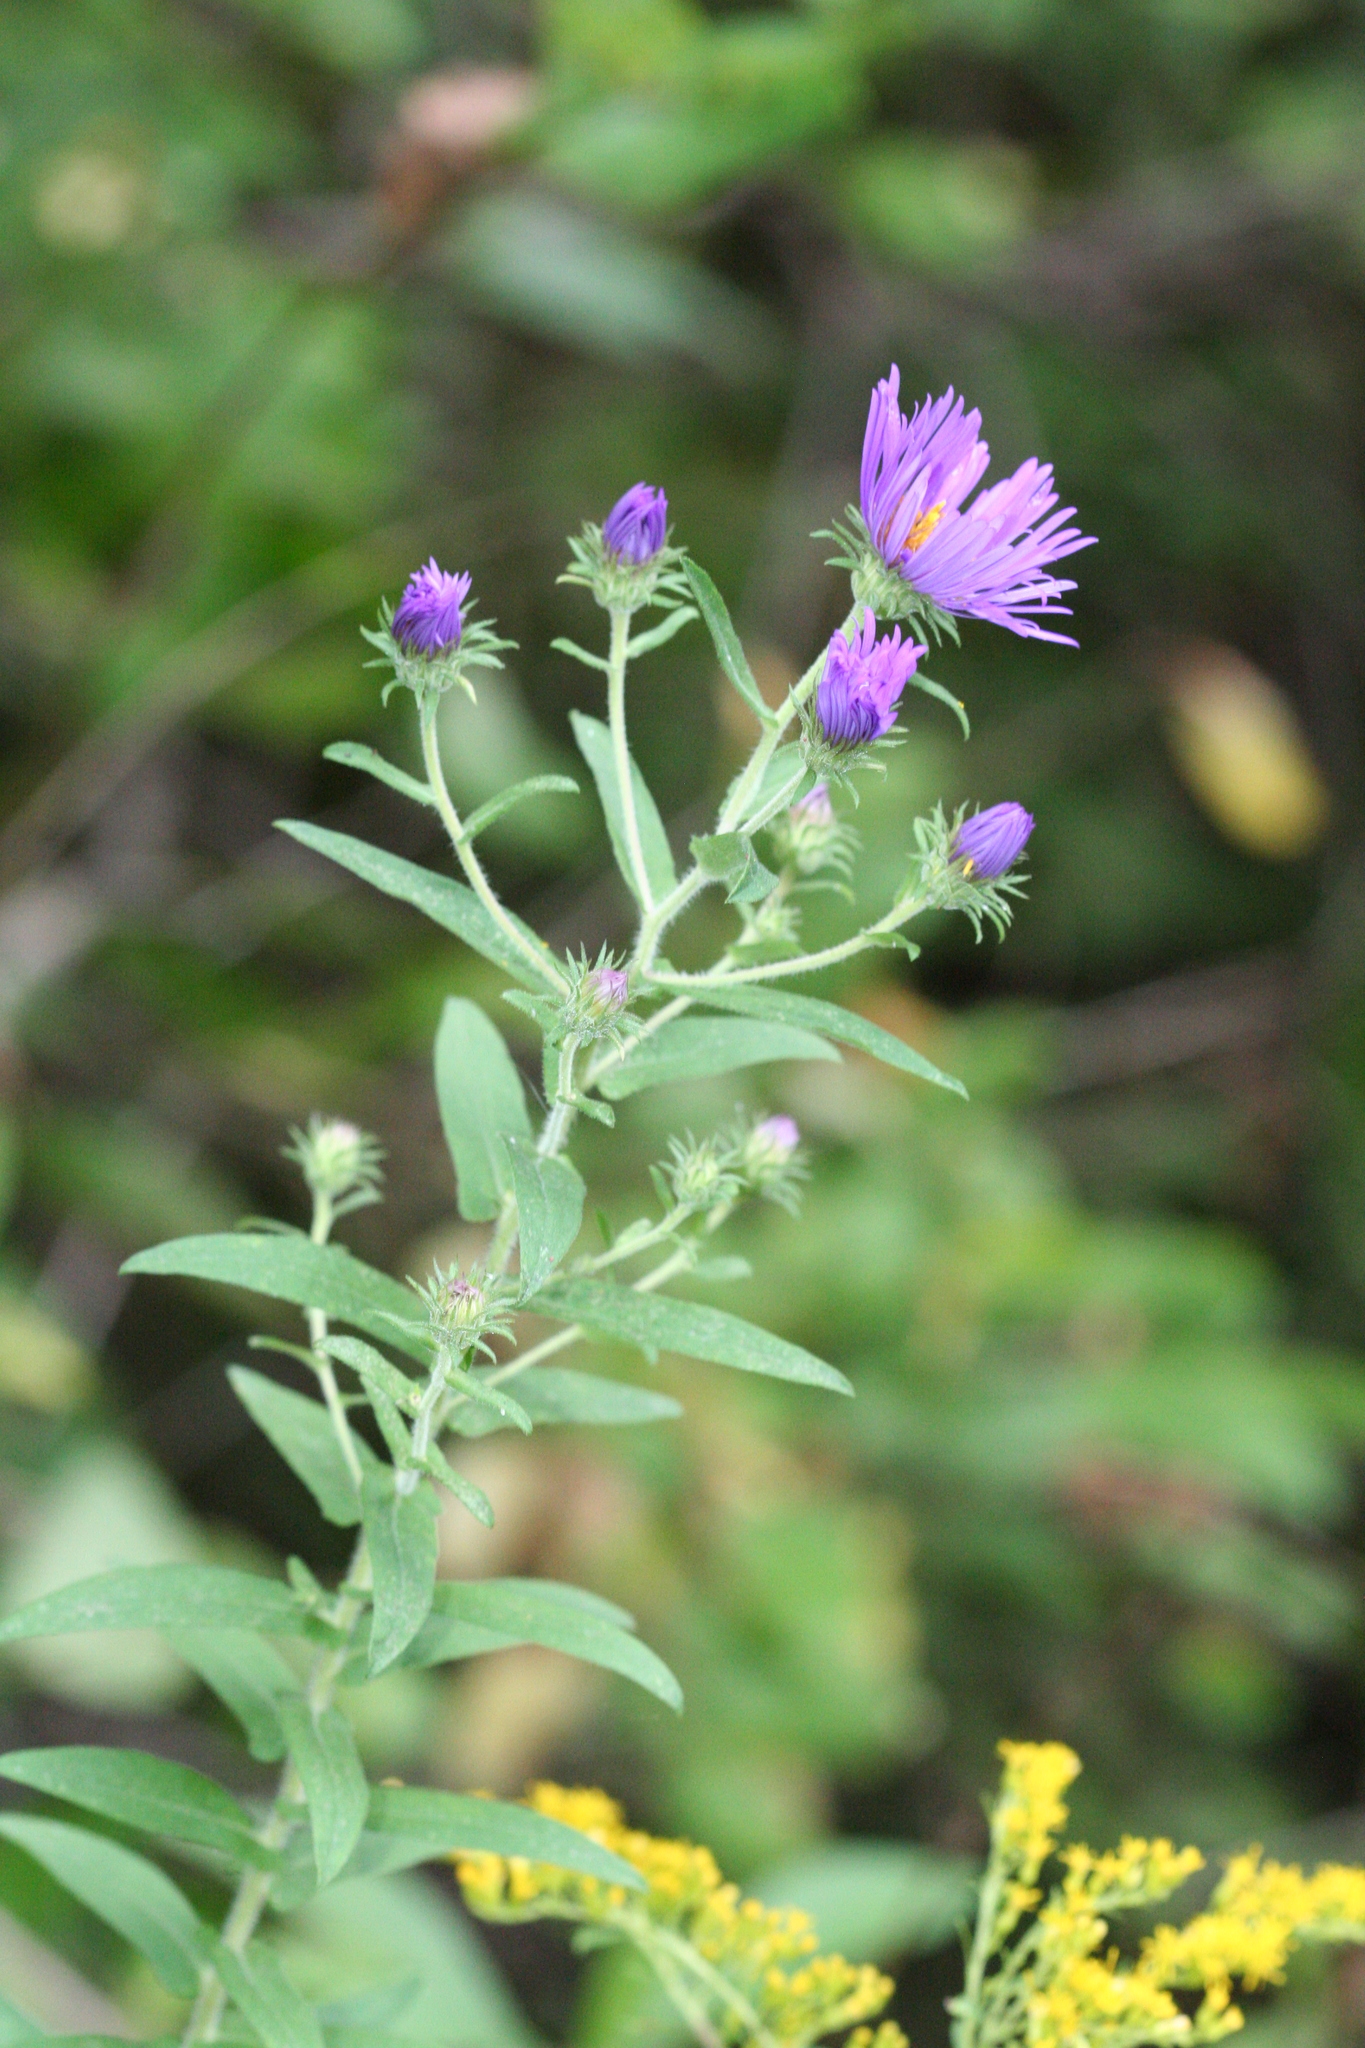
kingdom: Plantae
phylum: Tracheophyta
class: Magnoliopsida
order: Asterales
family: Asteraceae
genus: Symphyotrichum
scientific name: Symphyotrichum novae-angliae
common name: Michaelmas daisy
